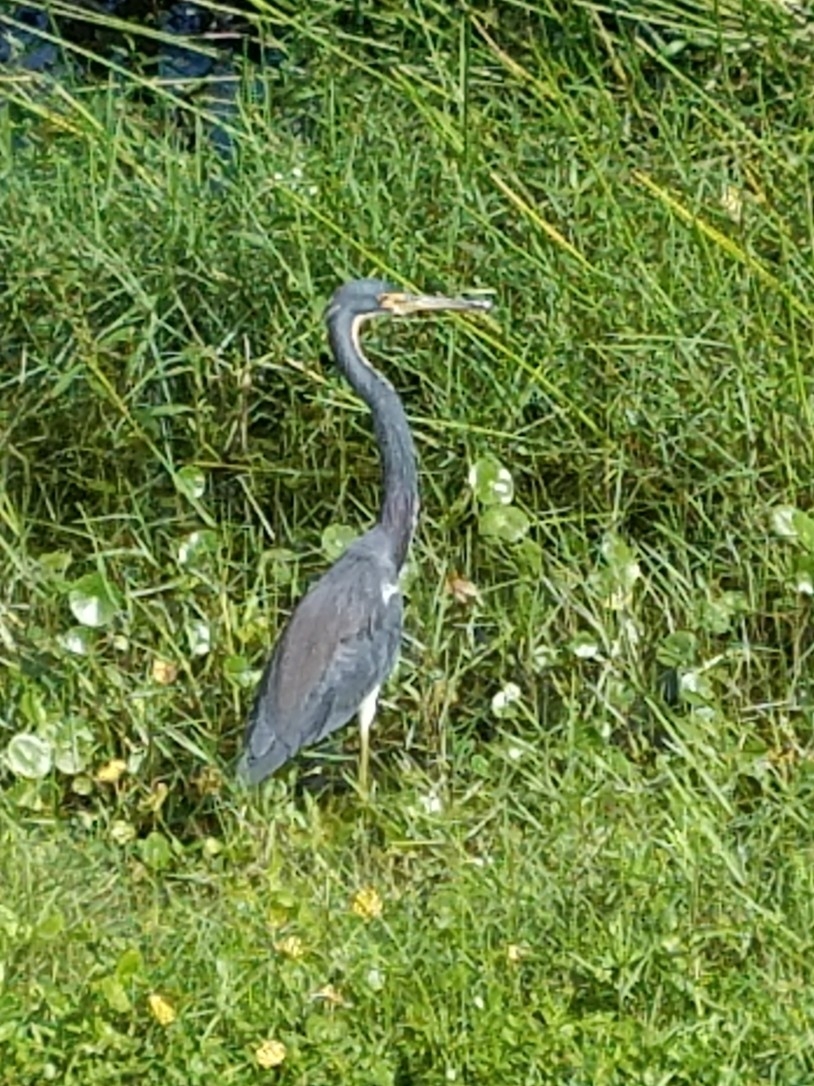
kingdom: Animalia
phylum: Chordata
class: Aves
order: Pelecaniformes
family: Ardeidae
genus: Egretta
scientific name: Egretta tricolor
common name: Tricolored heron
